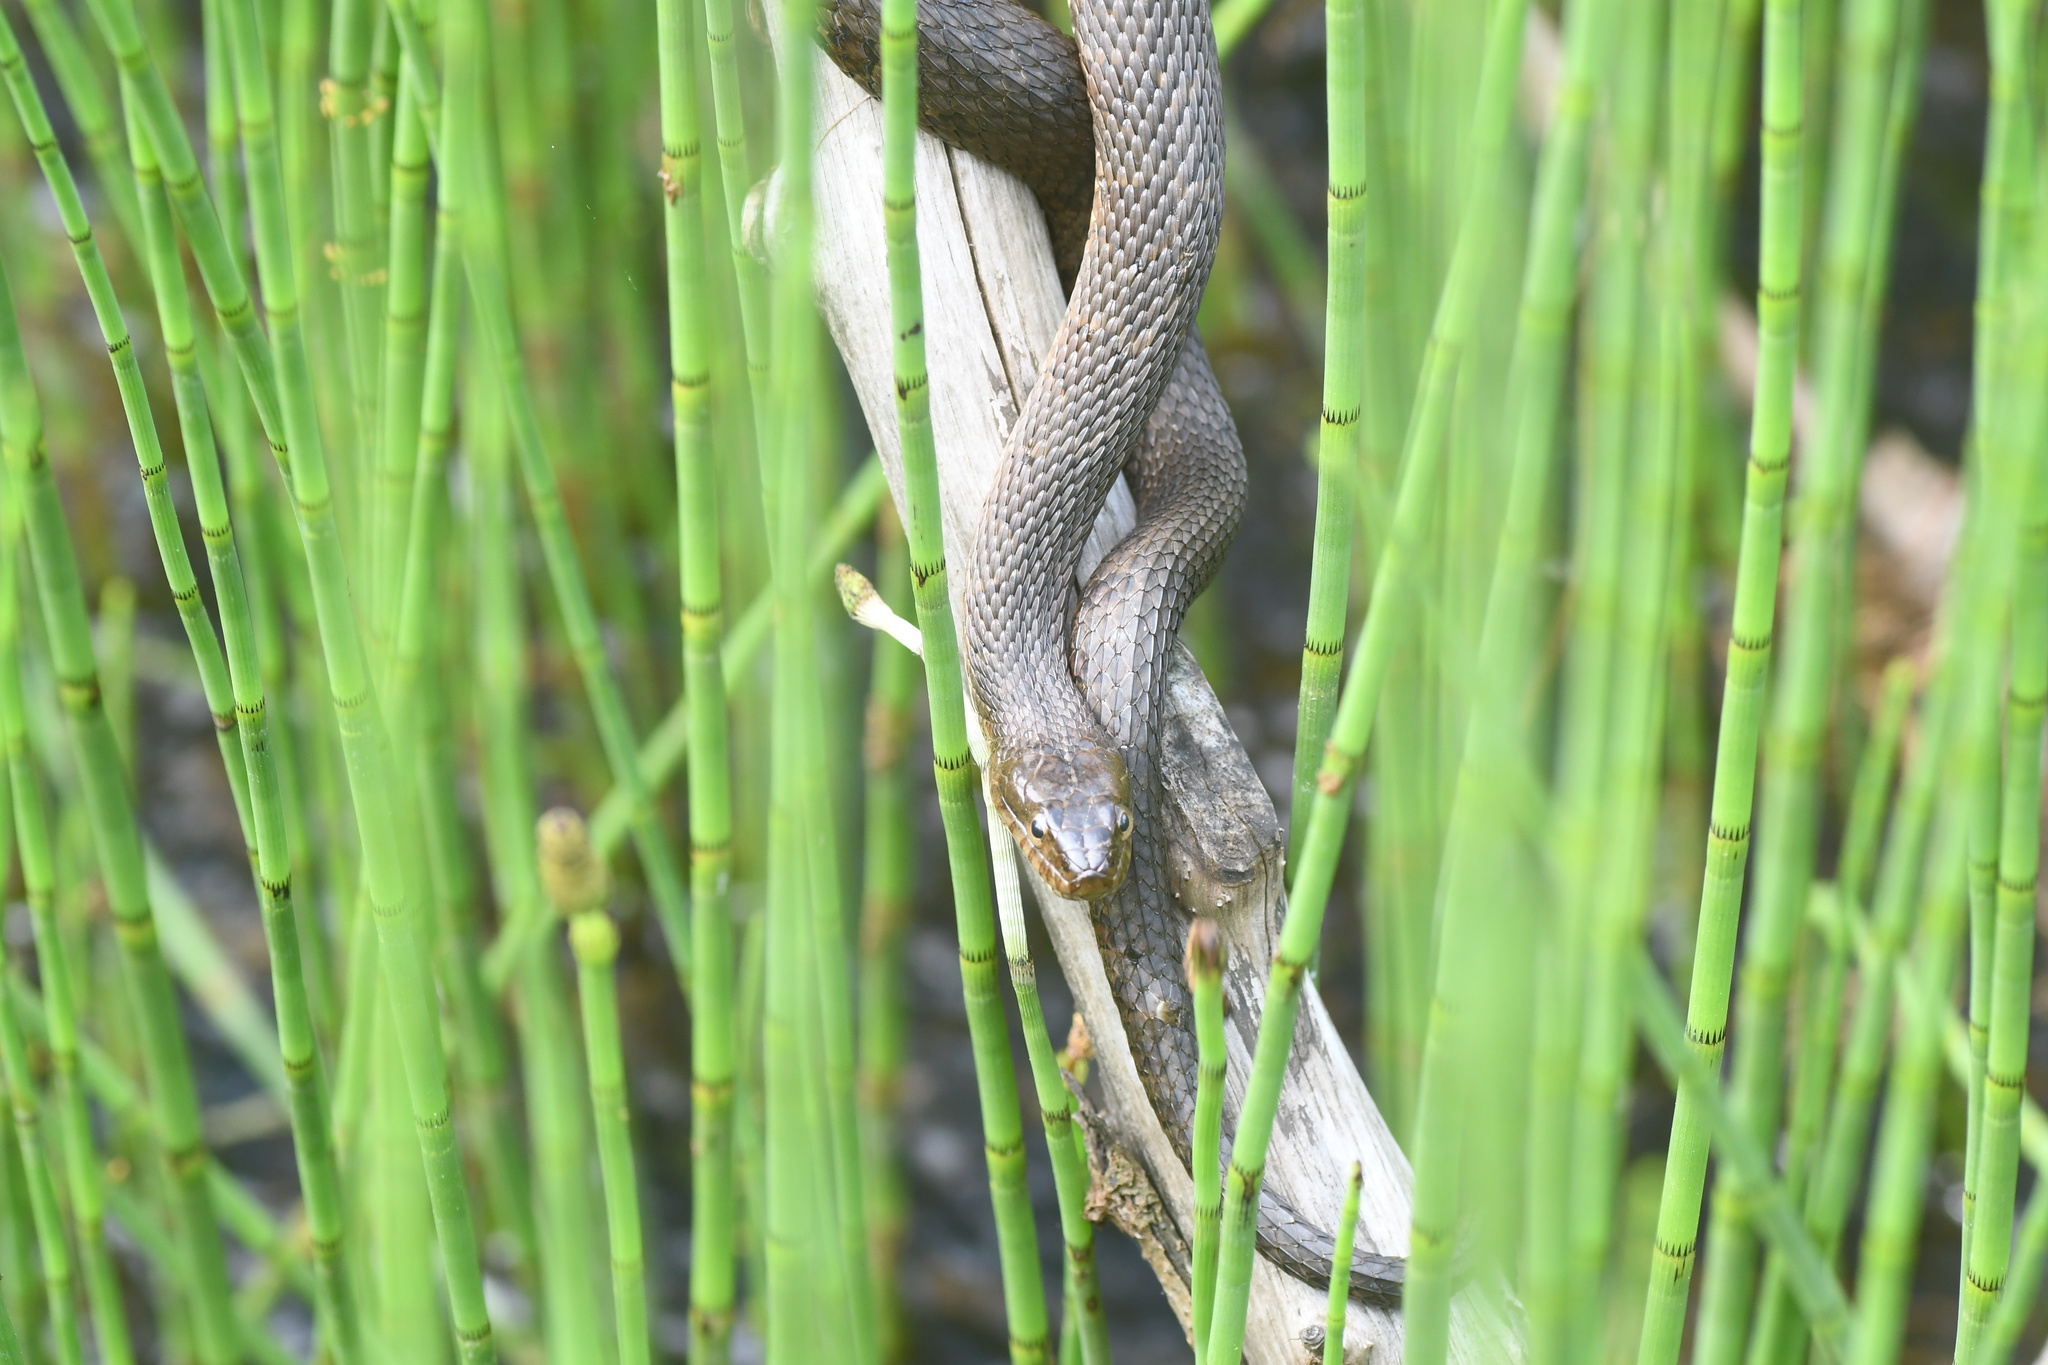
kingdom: Animalia
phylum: Chordata
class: Squamata
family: Colubridae
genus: Nerodia
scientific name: Nerodia sipedon
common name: Northern water snake
